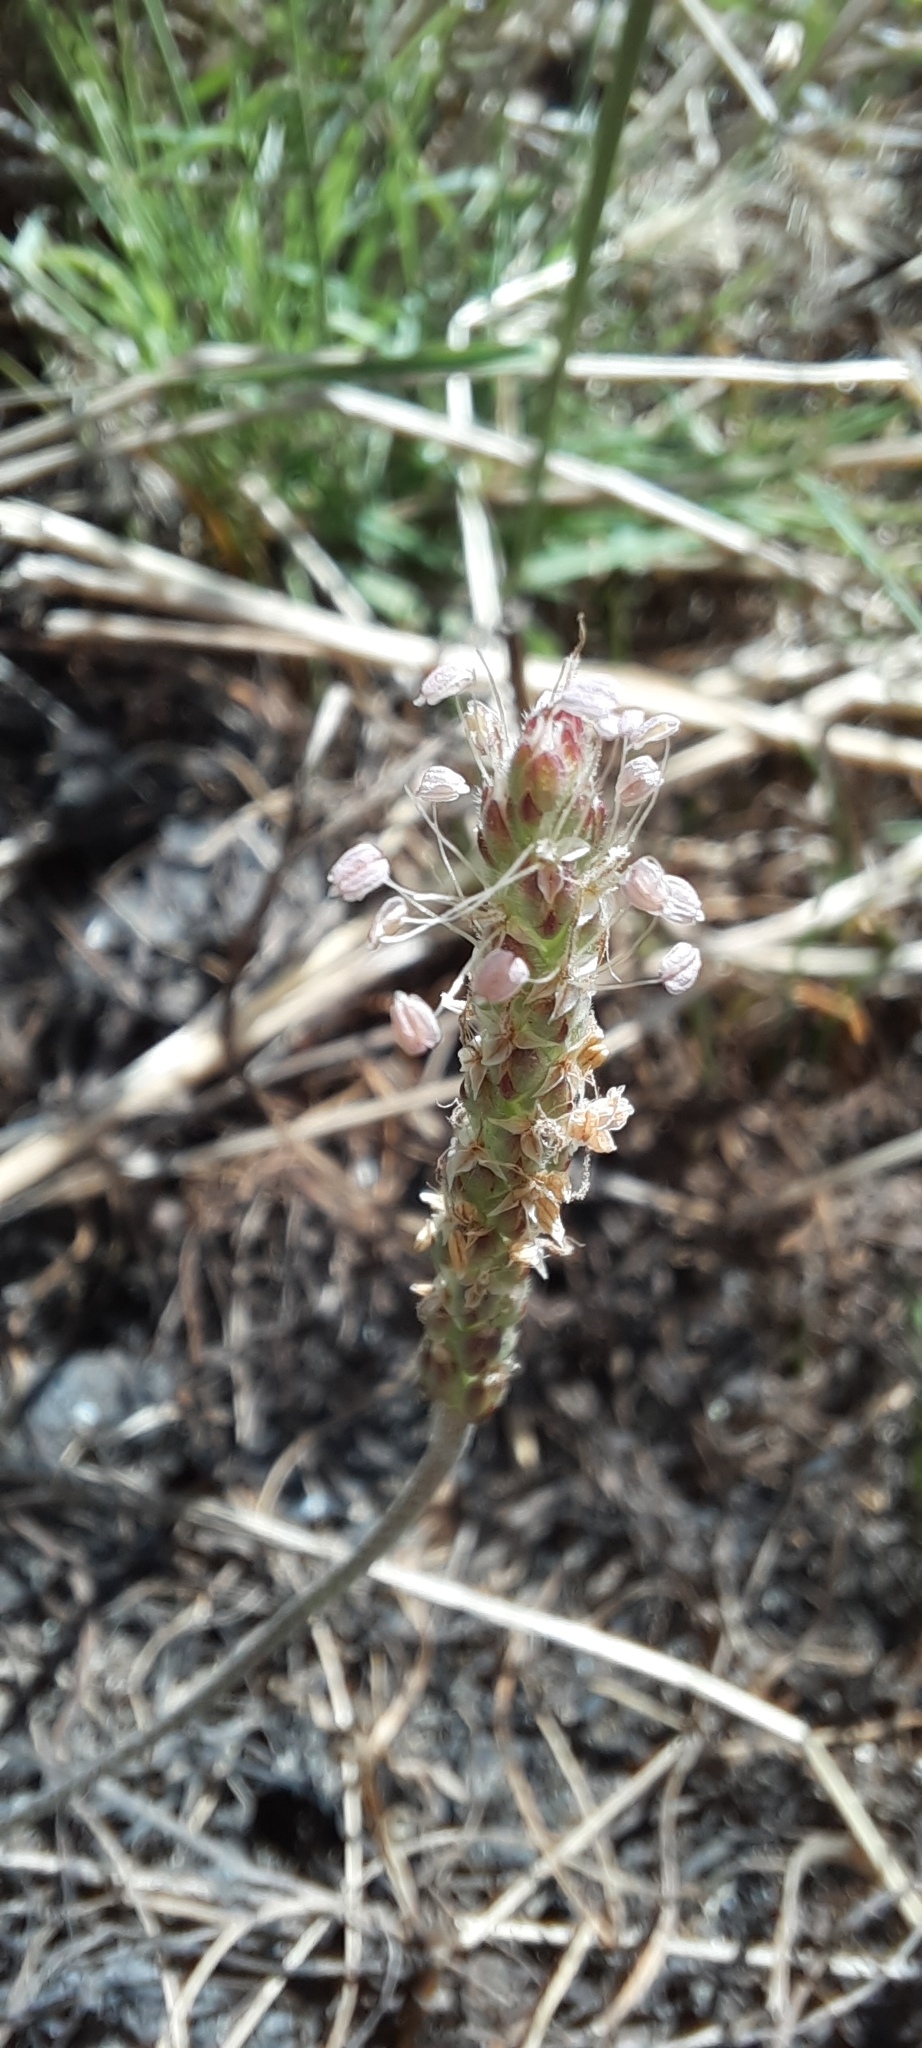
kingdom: Plantae
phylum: Tracheophyta
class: Magnoliopsida
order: Lamiales
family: Plantaginaceae
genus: Plantago
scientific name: Plantago coronopus
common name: Buck's-horn plantain
